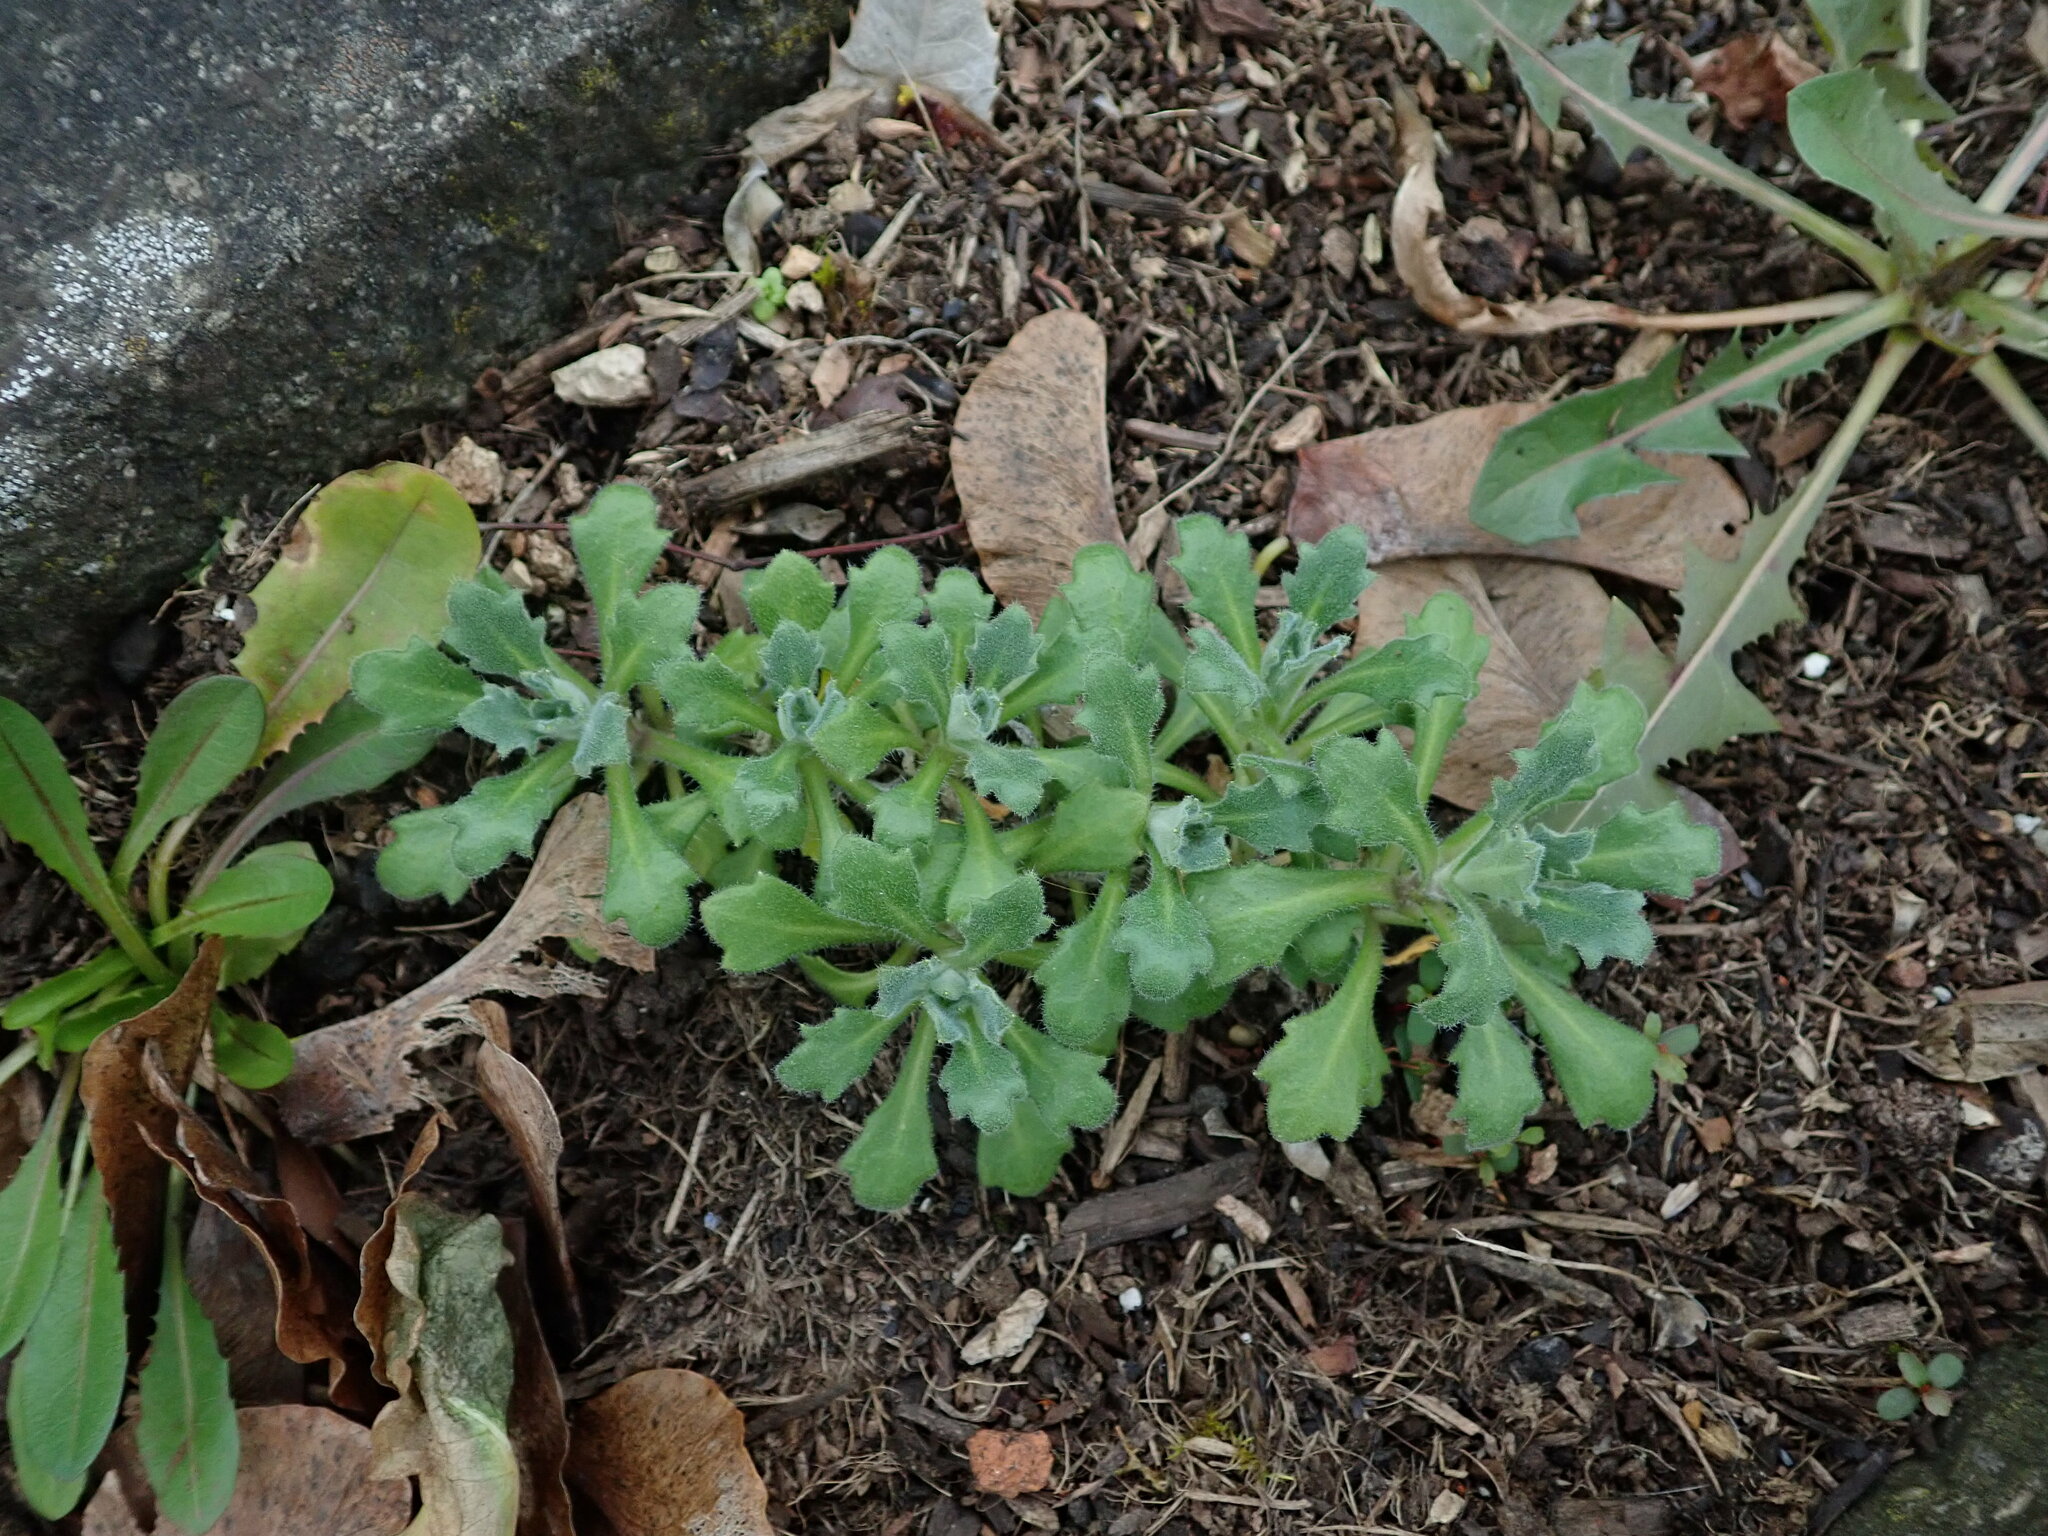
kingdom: Plantae
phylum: Tracheophyta
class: Magnoliopsida
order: Brassicales
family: Brassicaceae
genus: Aubrieta
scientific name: Aubrieta deltoidea
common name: Aubretia
